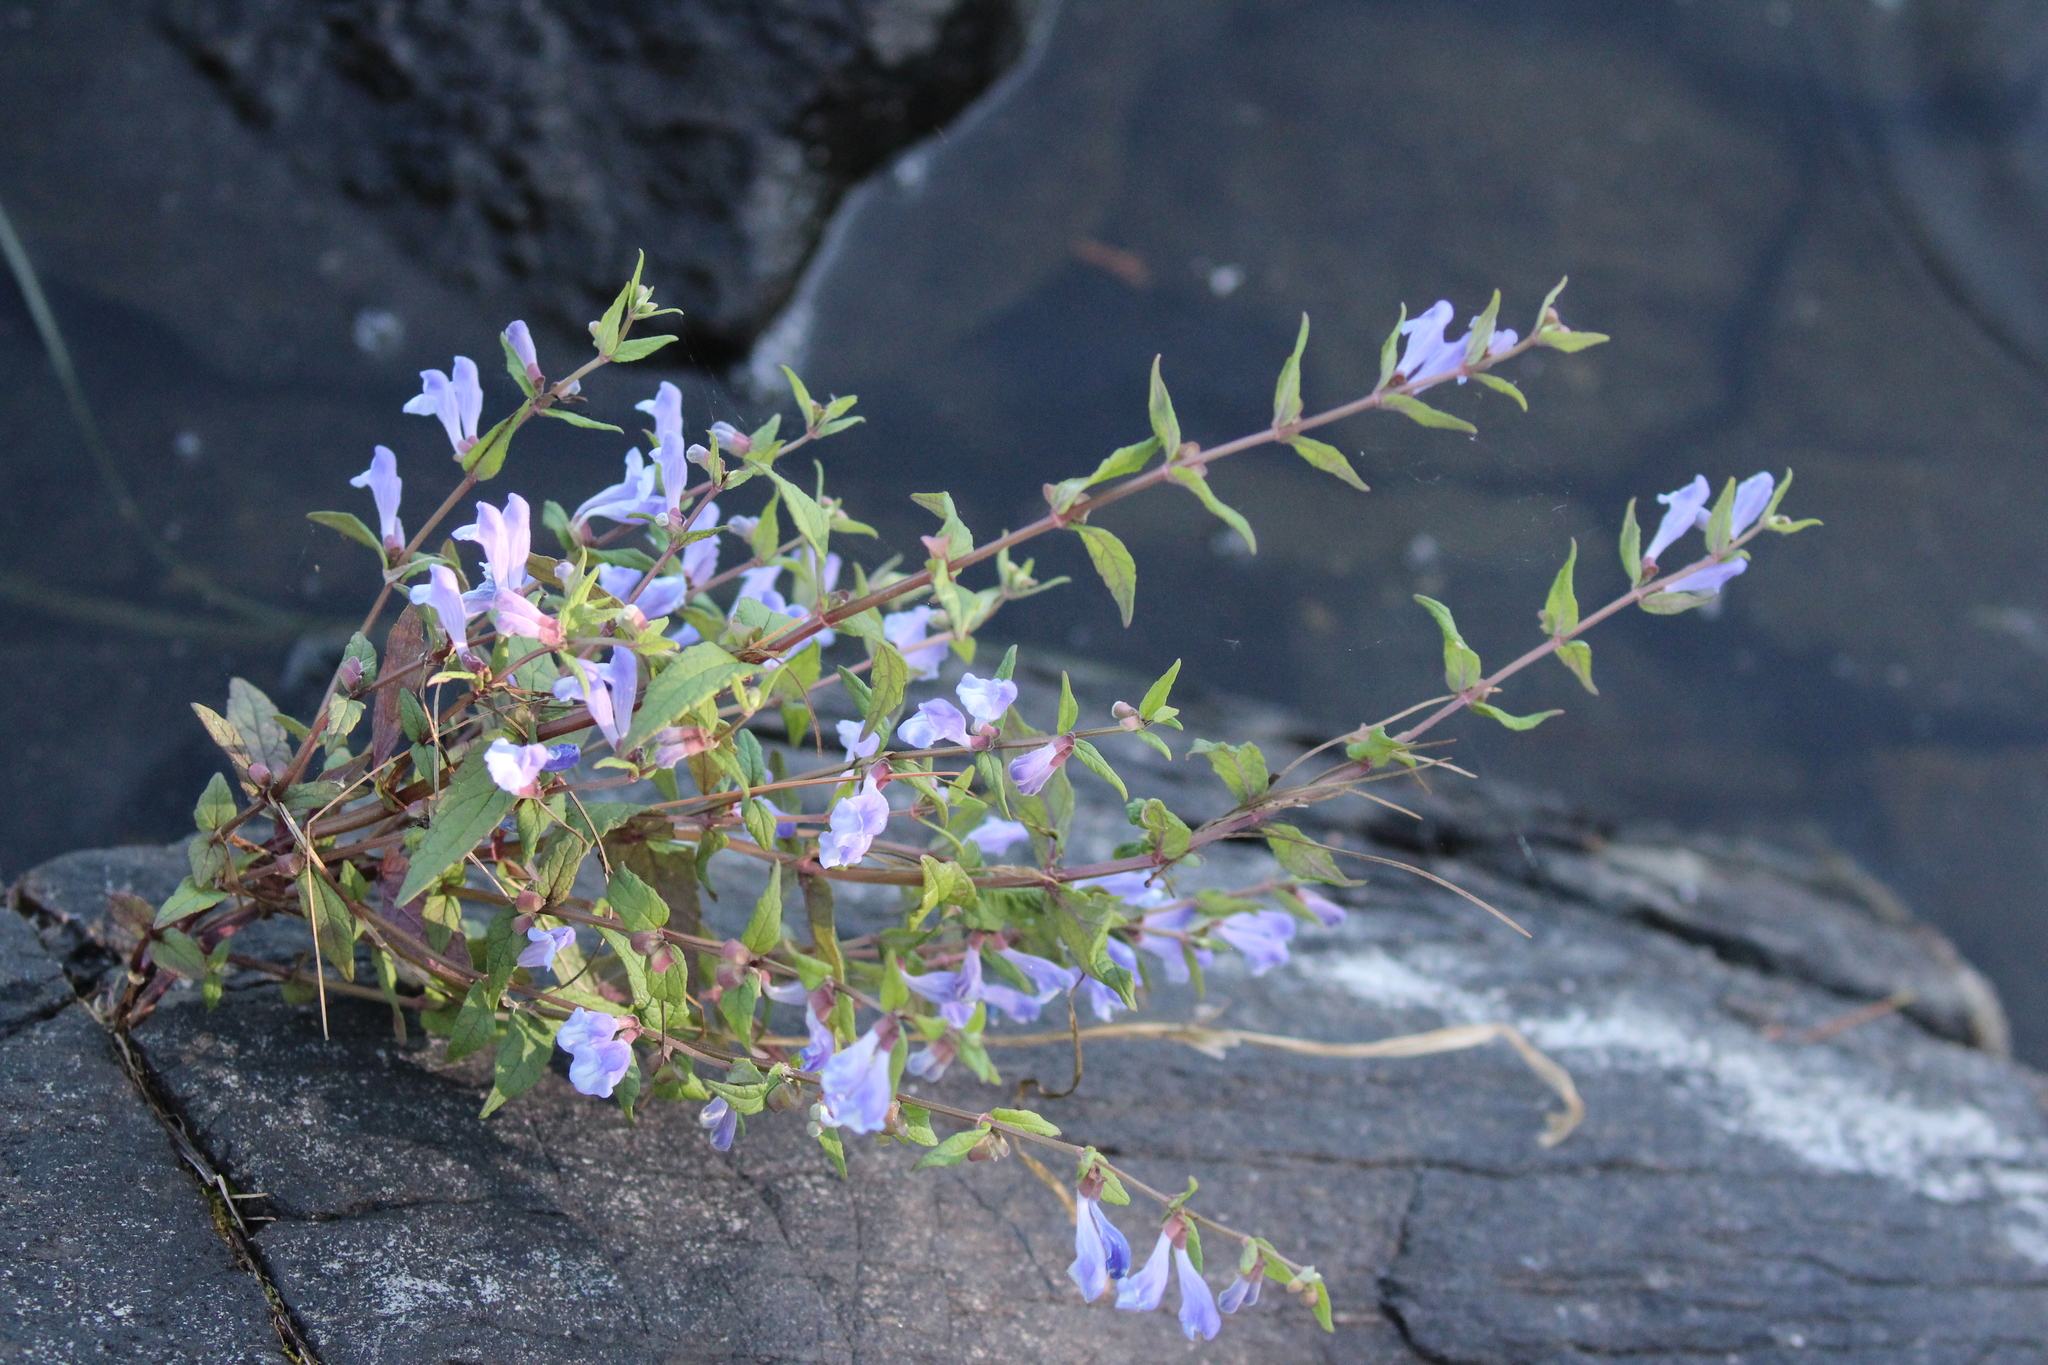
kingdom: Plantae
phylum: Tracheophyta
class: Magnoliopsida
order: Lamiales
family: Lamiaceae
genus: Scutellaria
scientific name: Scutellaria galericulata
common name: Skullcap
